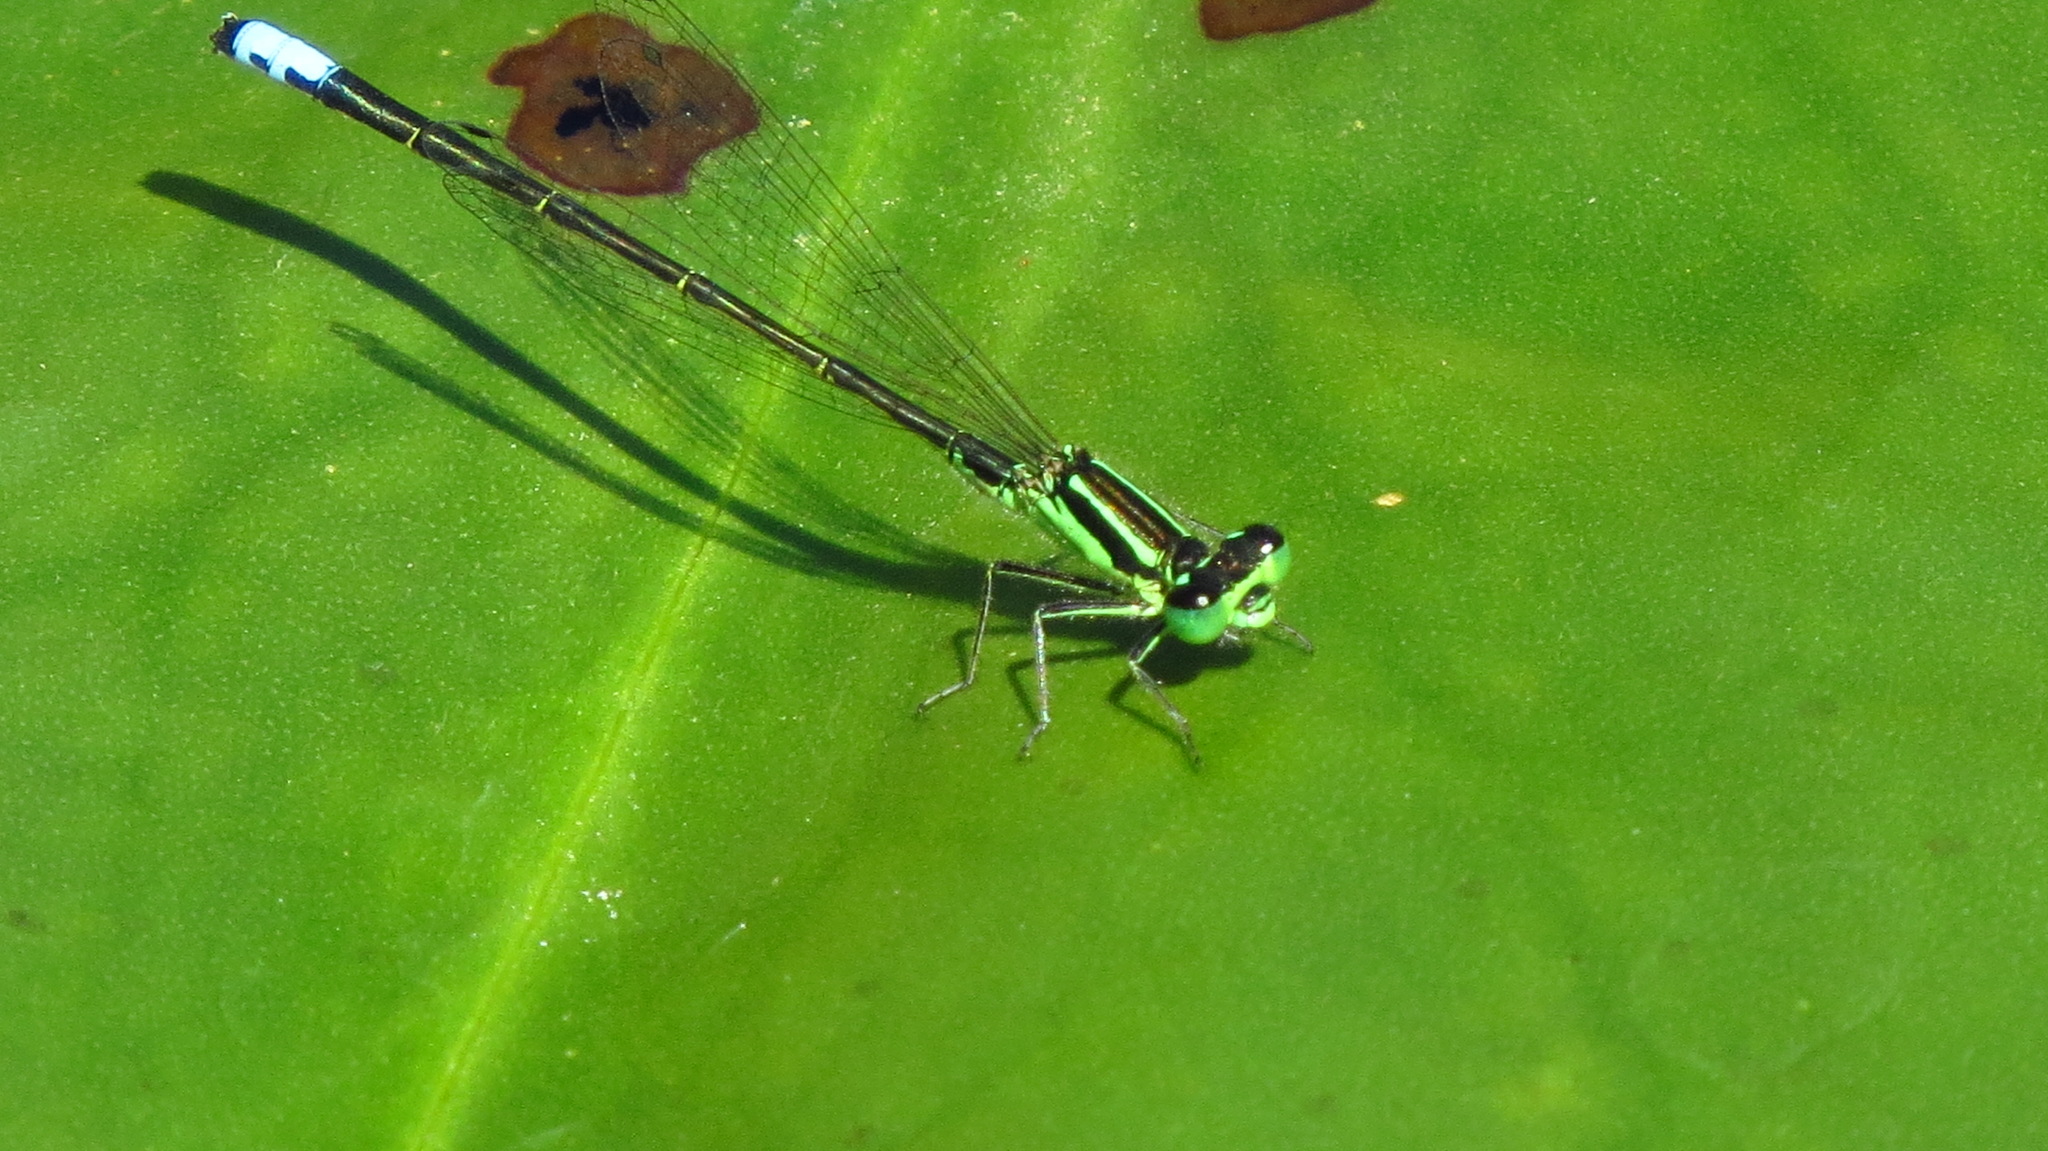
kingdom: Animalia
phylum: Arthropoda
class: Insecta
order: Odonata
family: Coenagrionidae
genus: Ischnura
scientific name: Ischnura verticalis
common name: Eastern forktail
